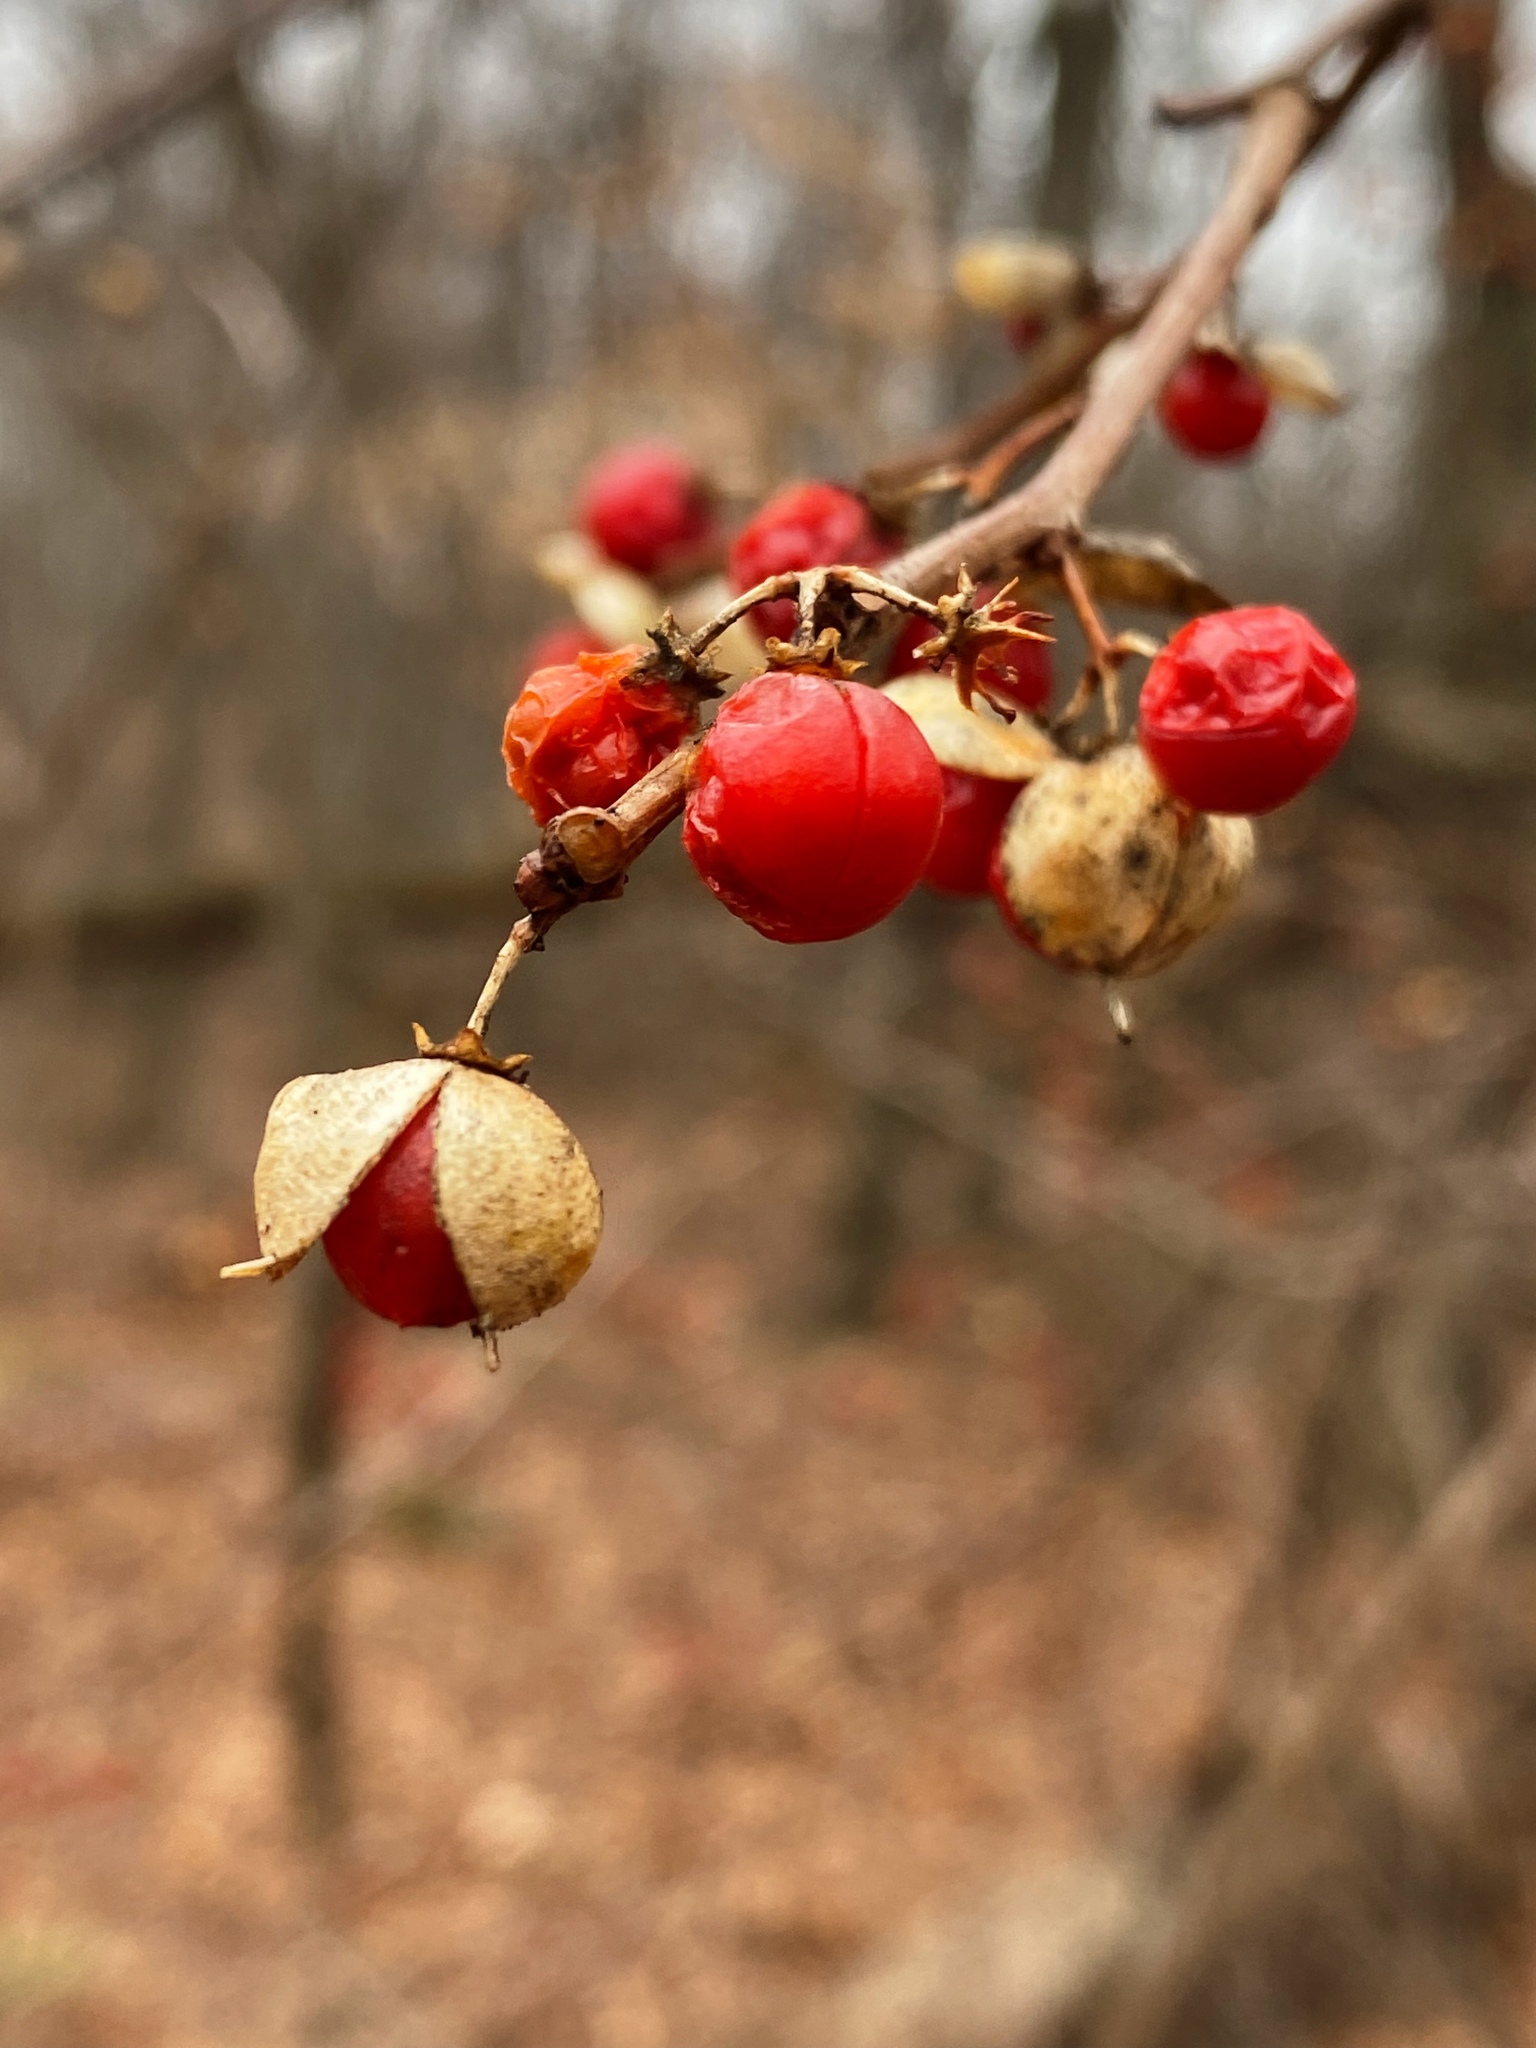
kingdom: Plantae
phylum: Tracheophyta
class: Magnoliopsida
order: Celastrales
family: Celastraceae
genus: Celastrus
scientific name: Celastrus orbiculatus
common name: Oriental bittersweet
